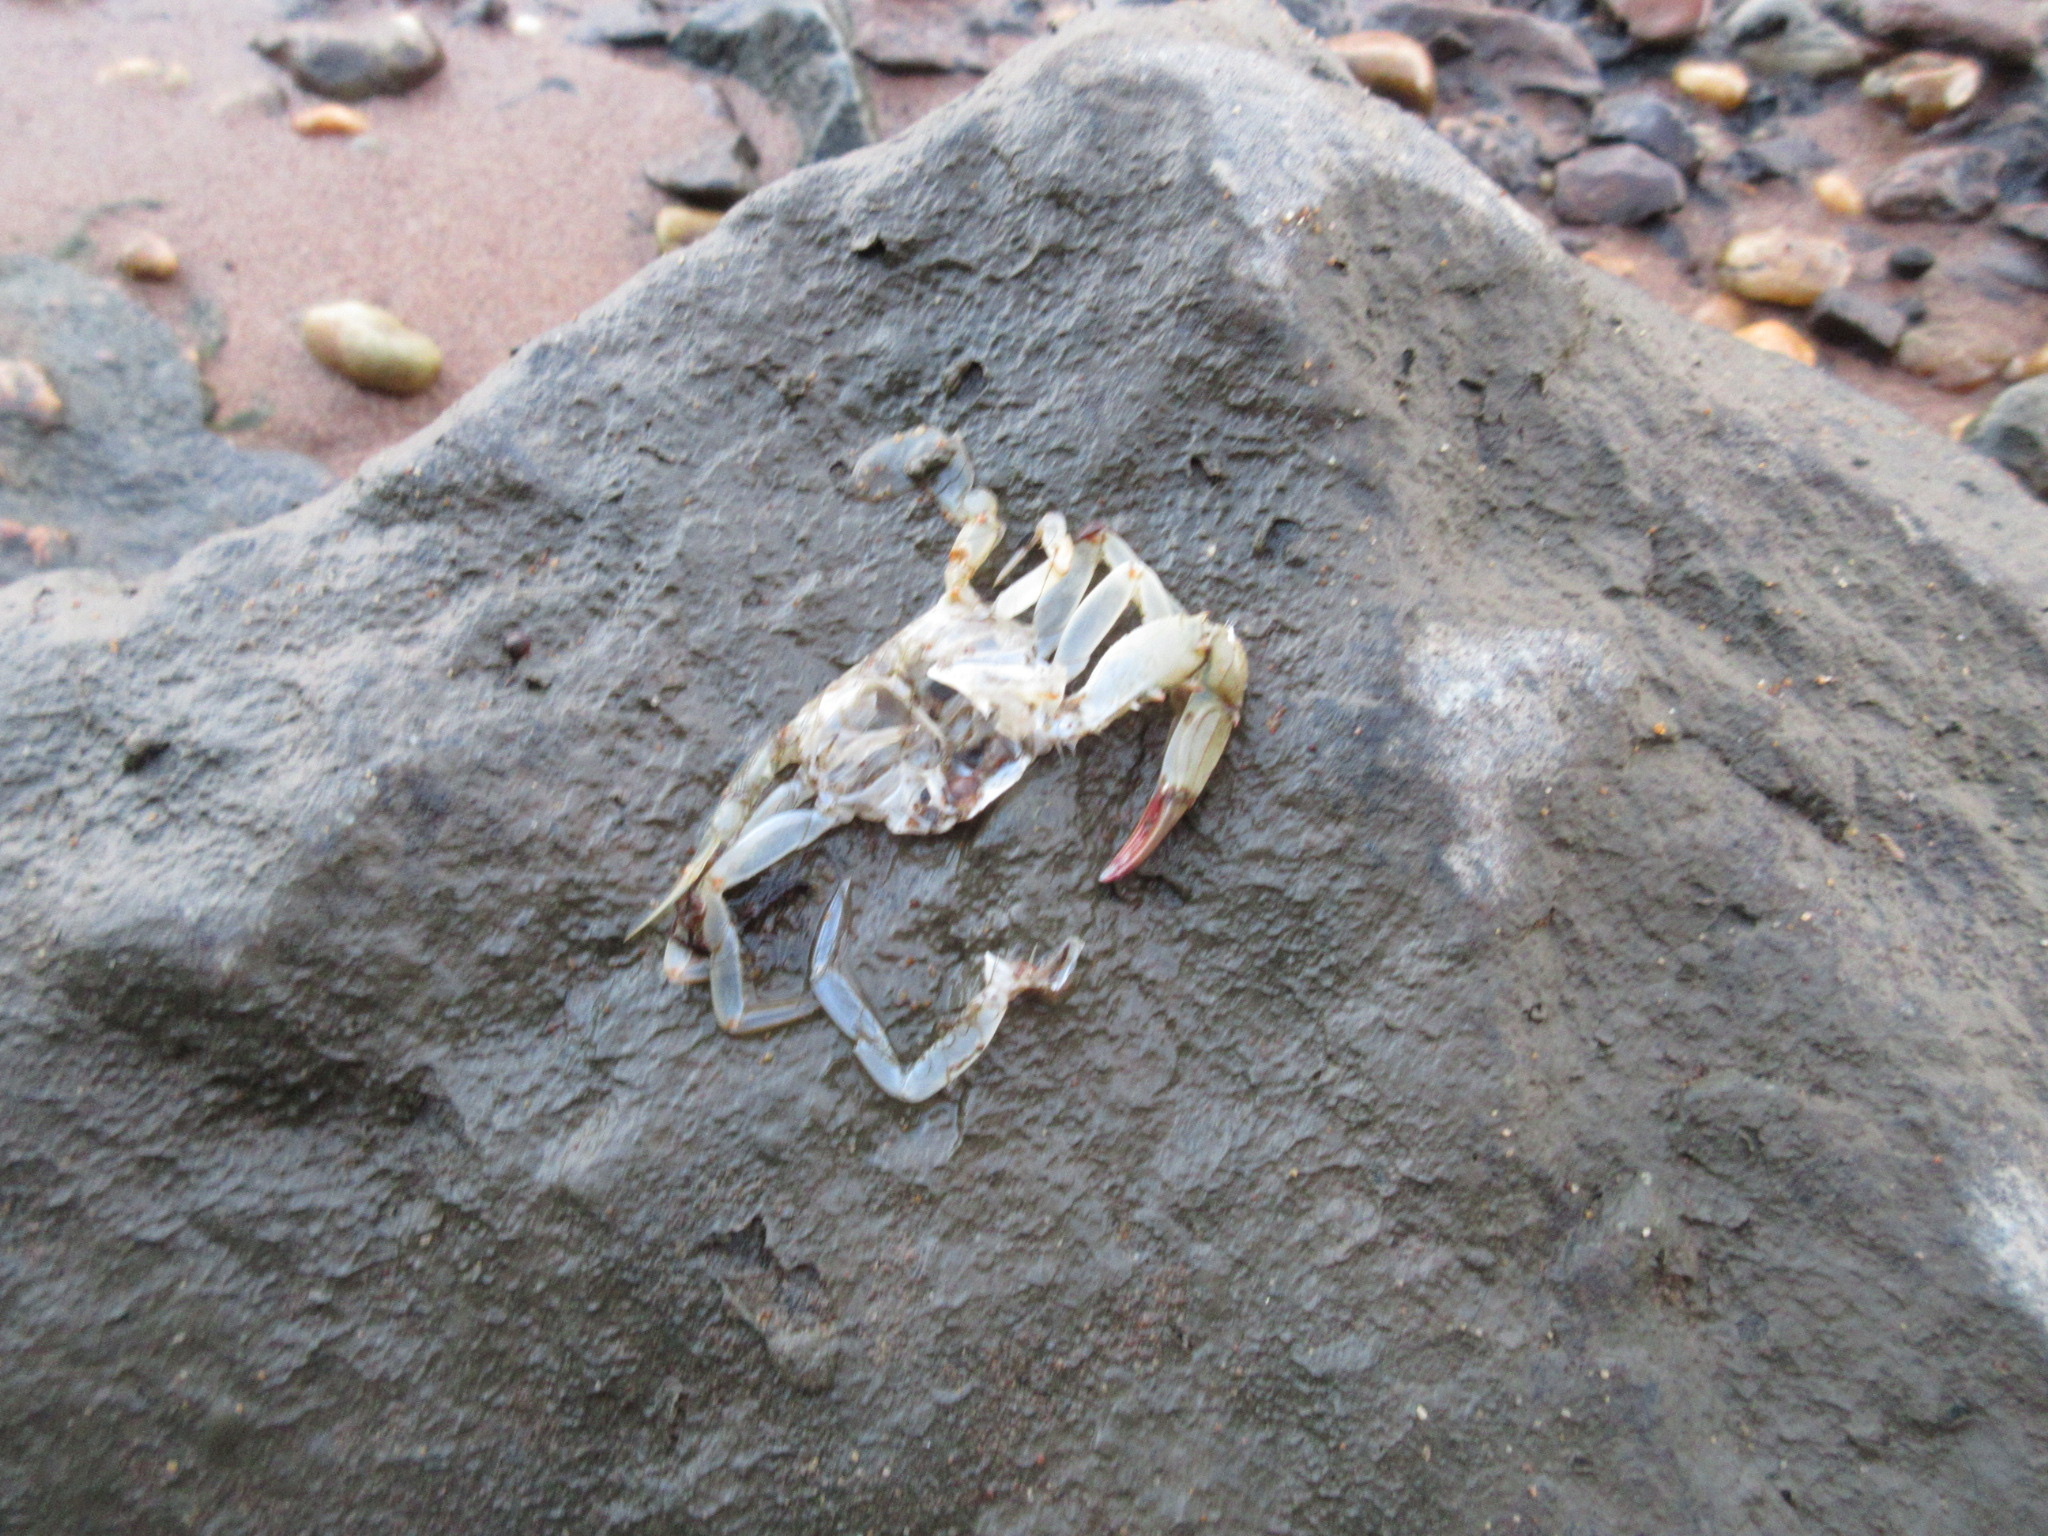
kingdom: Animalia
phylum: Arthropoda
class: Malacostraca
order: Decapoda
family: Portunidae
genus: Callinectes
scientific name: Callinectes sapidus
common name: Blue crab
